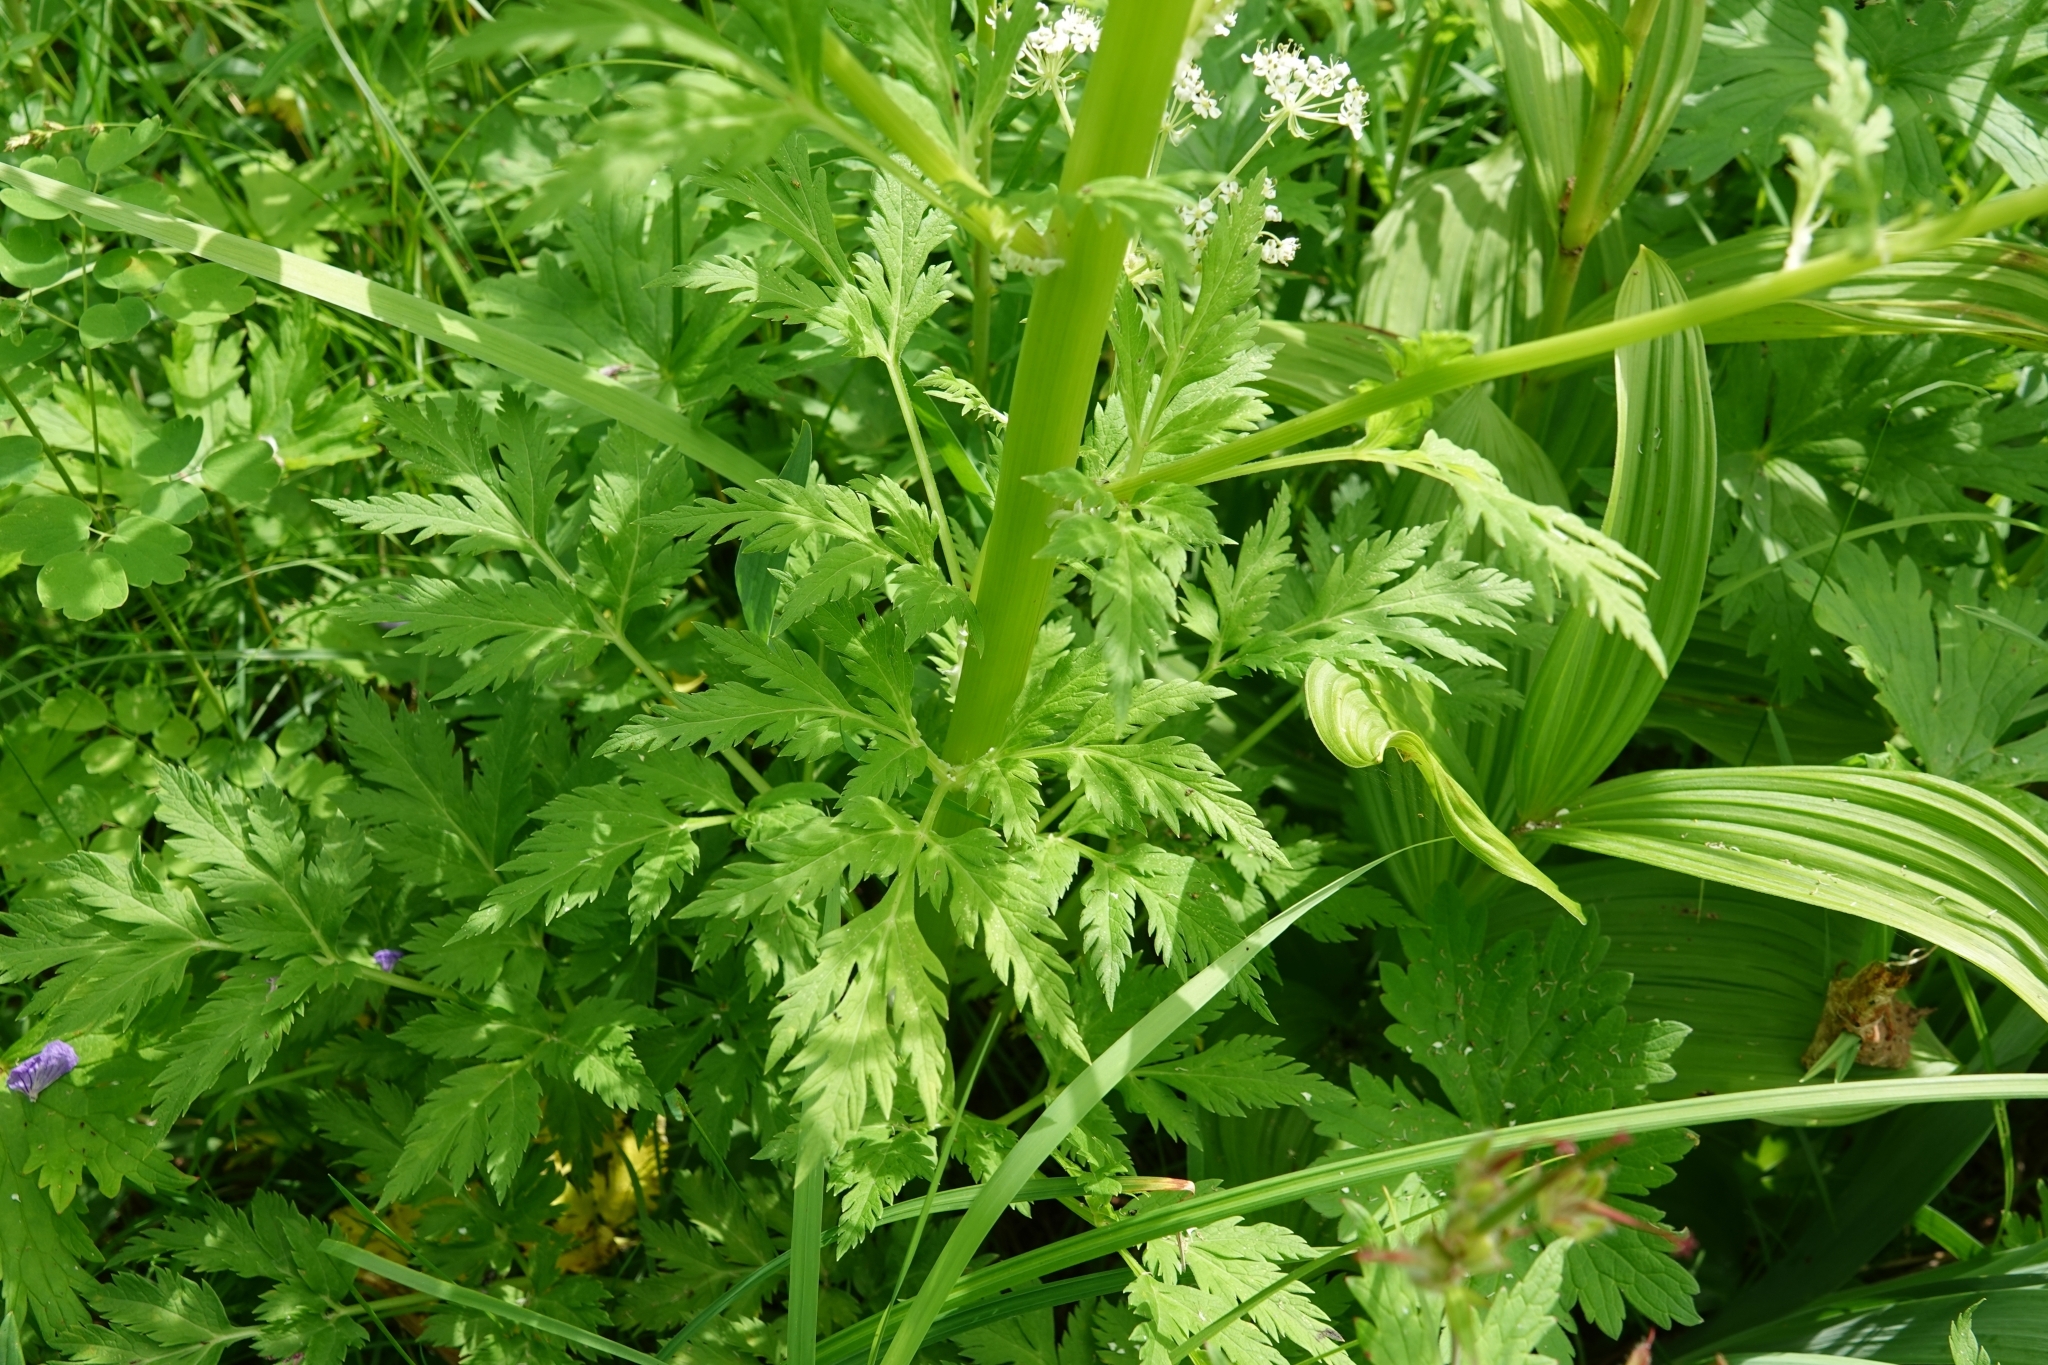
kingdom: Plantae
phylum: Tracheophyta
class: Magnoliopsida
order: Apiales
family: Apiaceae
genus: Pleurospermum
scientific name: Pleurospermum uralense
